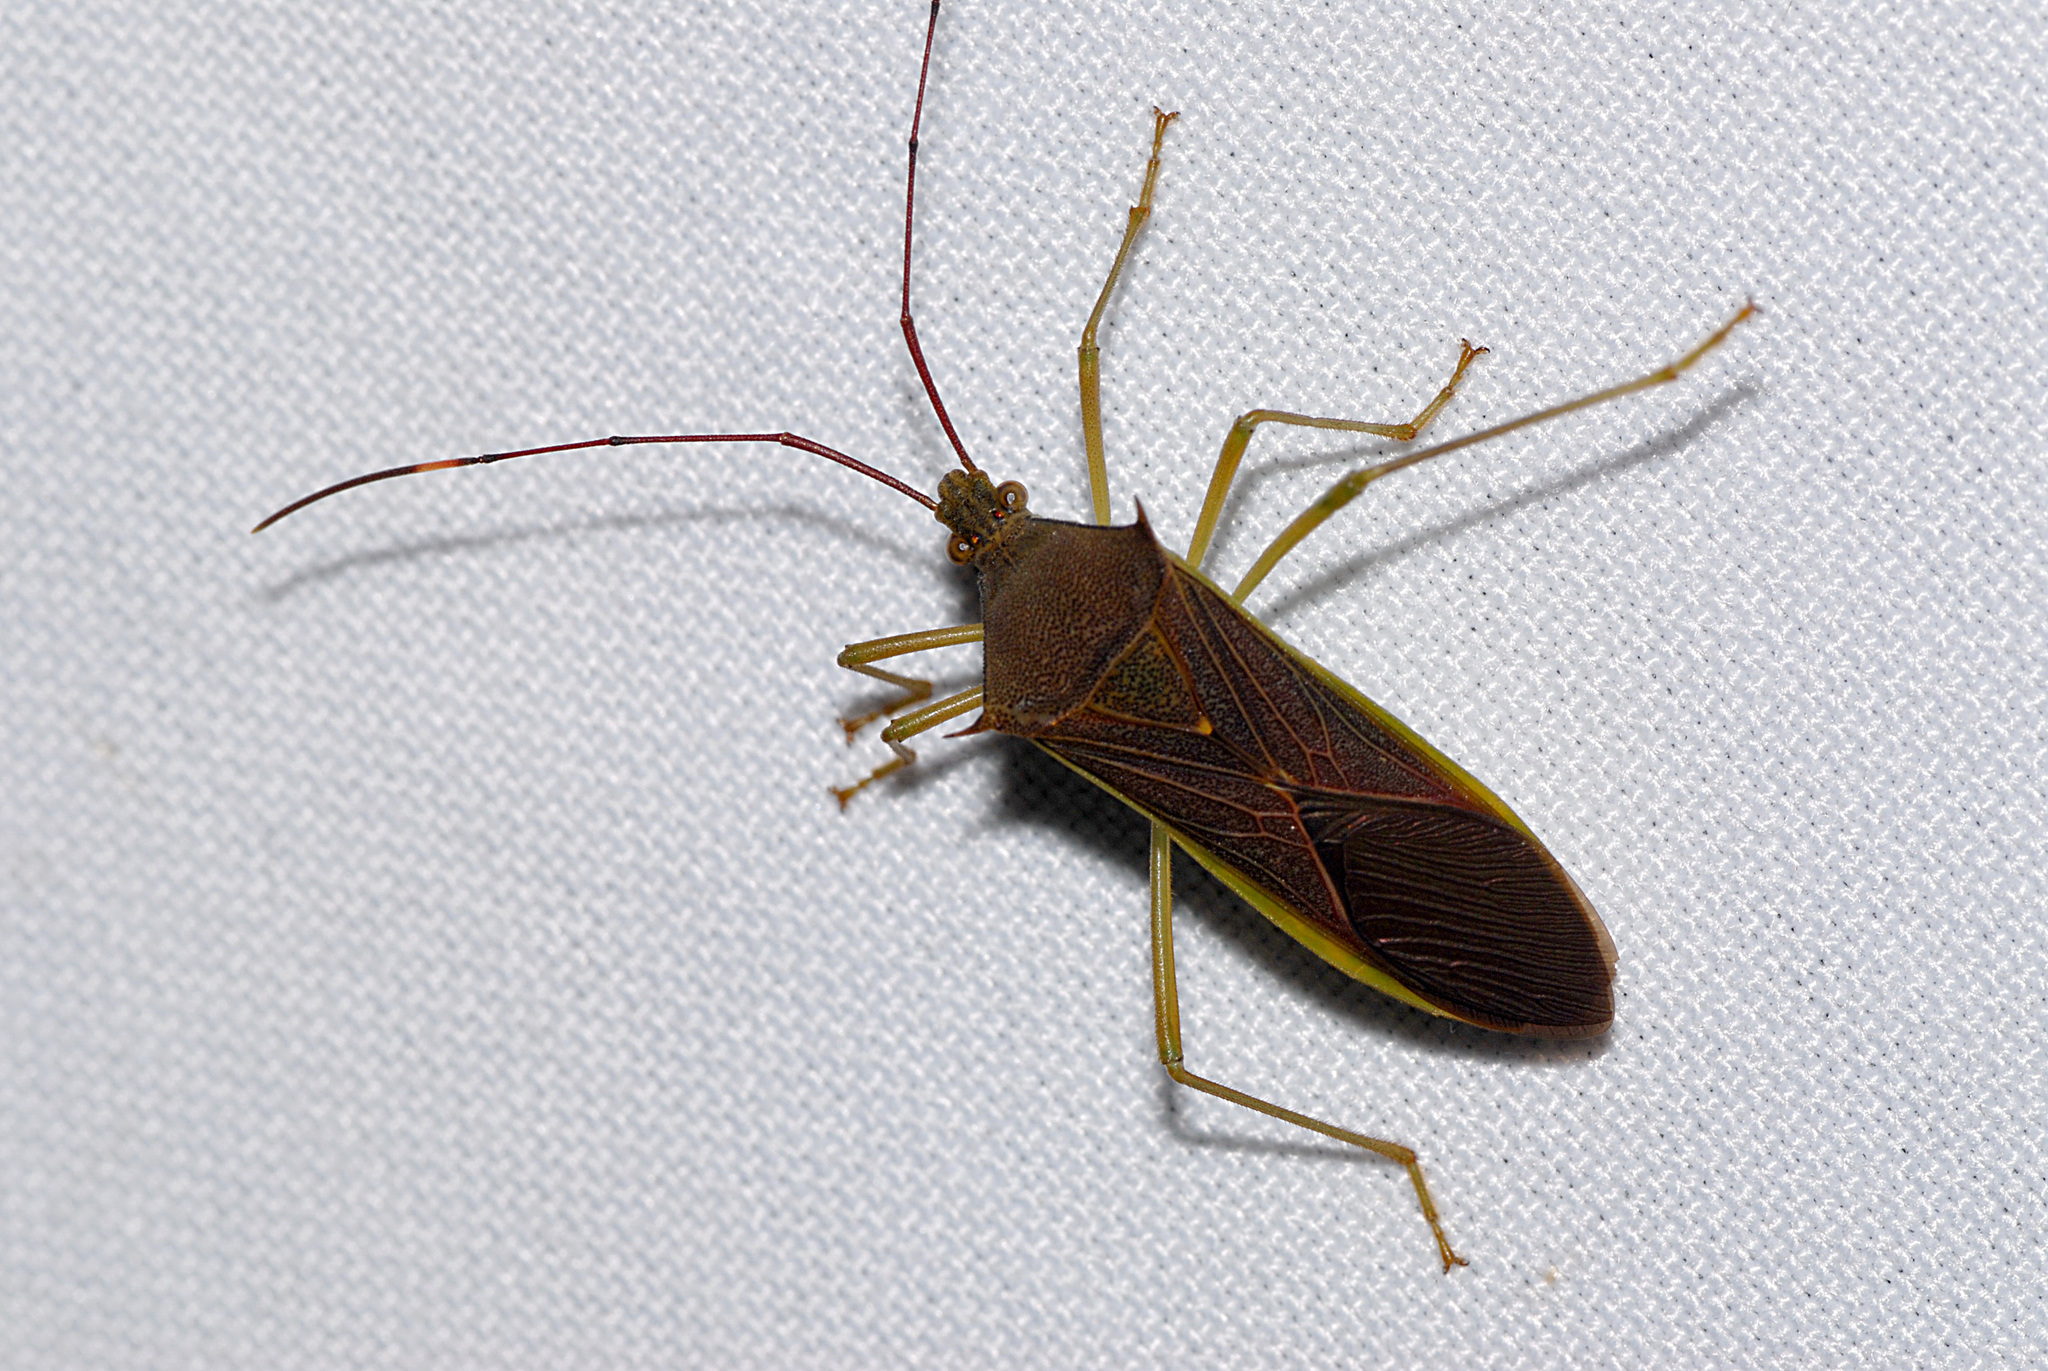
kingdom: Animalia
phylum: Arthropoda
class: Insecta
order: Hemiptera
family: Coreidae
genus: Paradasynus
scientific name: Paradasynus spinosus
